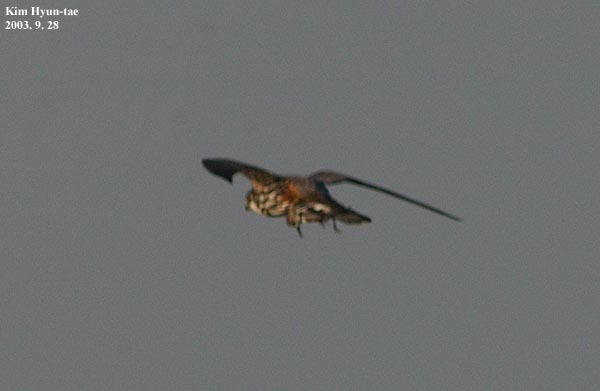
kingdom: Animalia
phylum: Chordata
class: Aves
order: Falconiformes
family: Falconidae
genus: Falco
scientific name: Falco subbuteo
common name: Eurasian hobby
